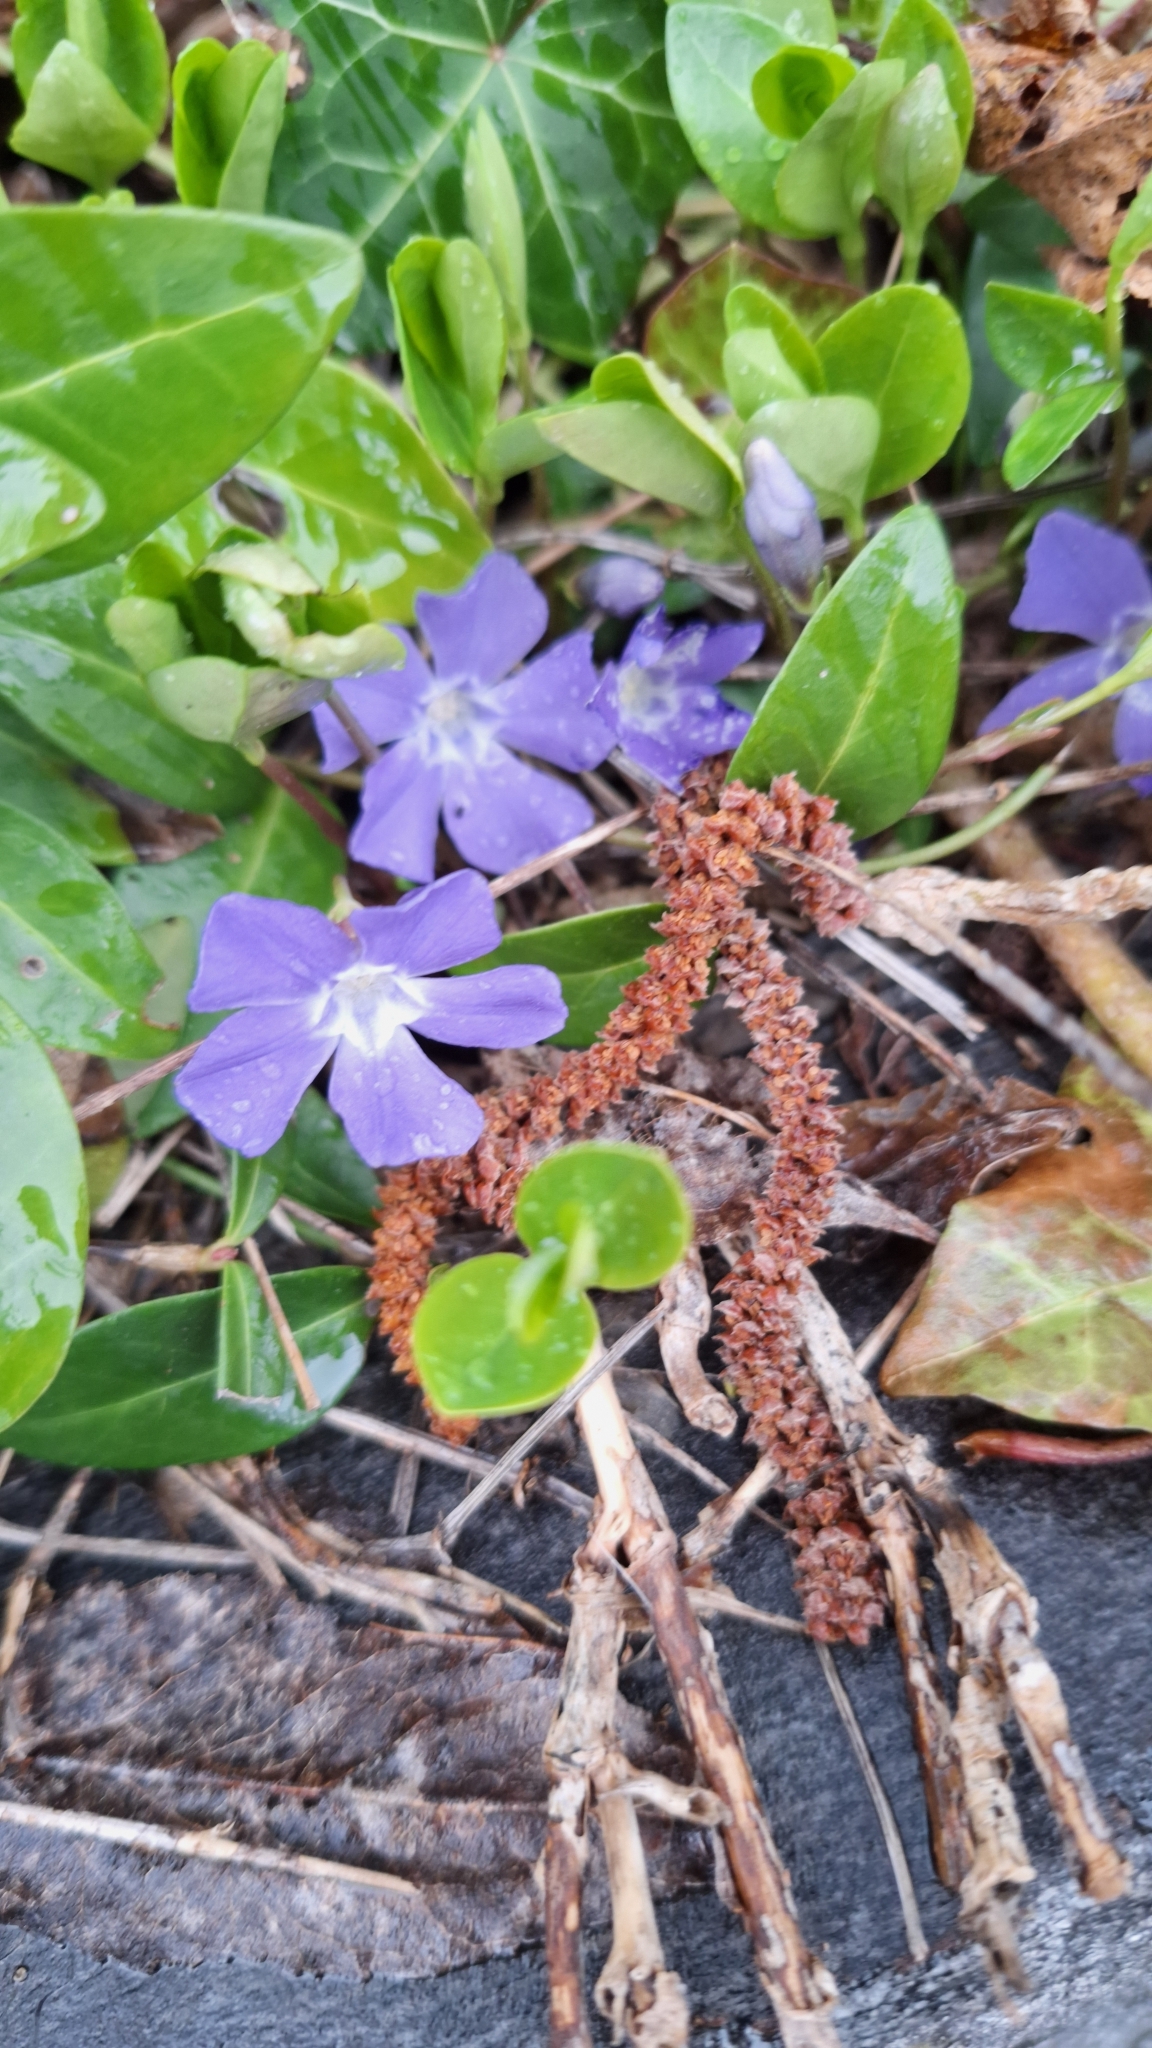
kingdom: Plantae
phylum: Tracheophyta
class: Magnoliopsida
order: Gentianales
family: Apocynaceae
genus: Vinca
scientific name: Vinca minor
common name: Lesser periwinkle
